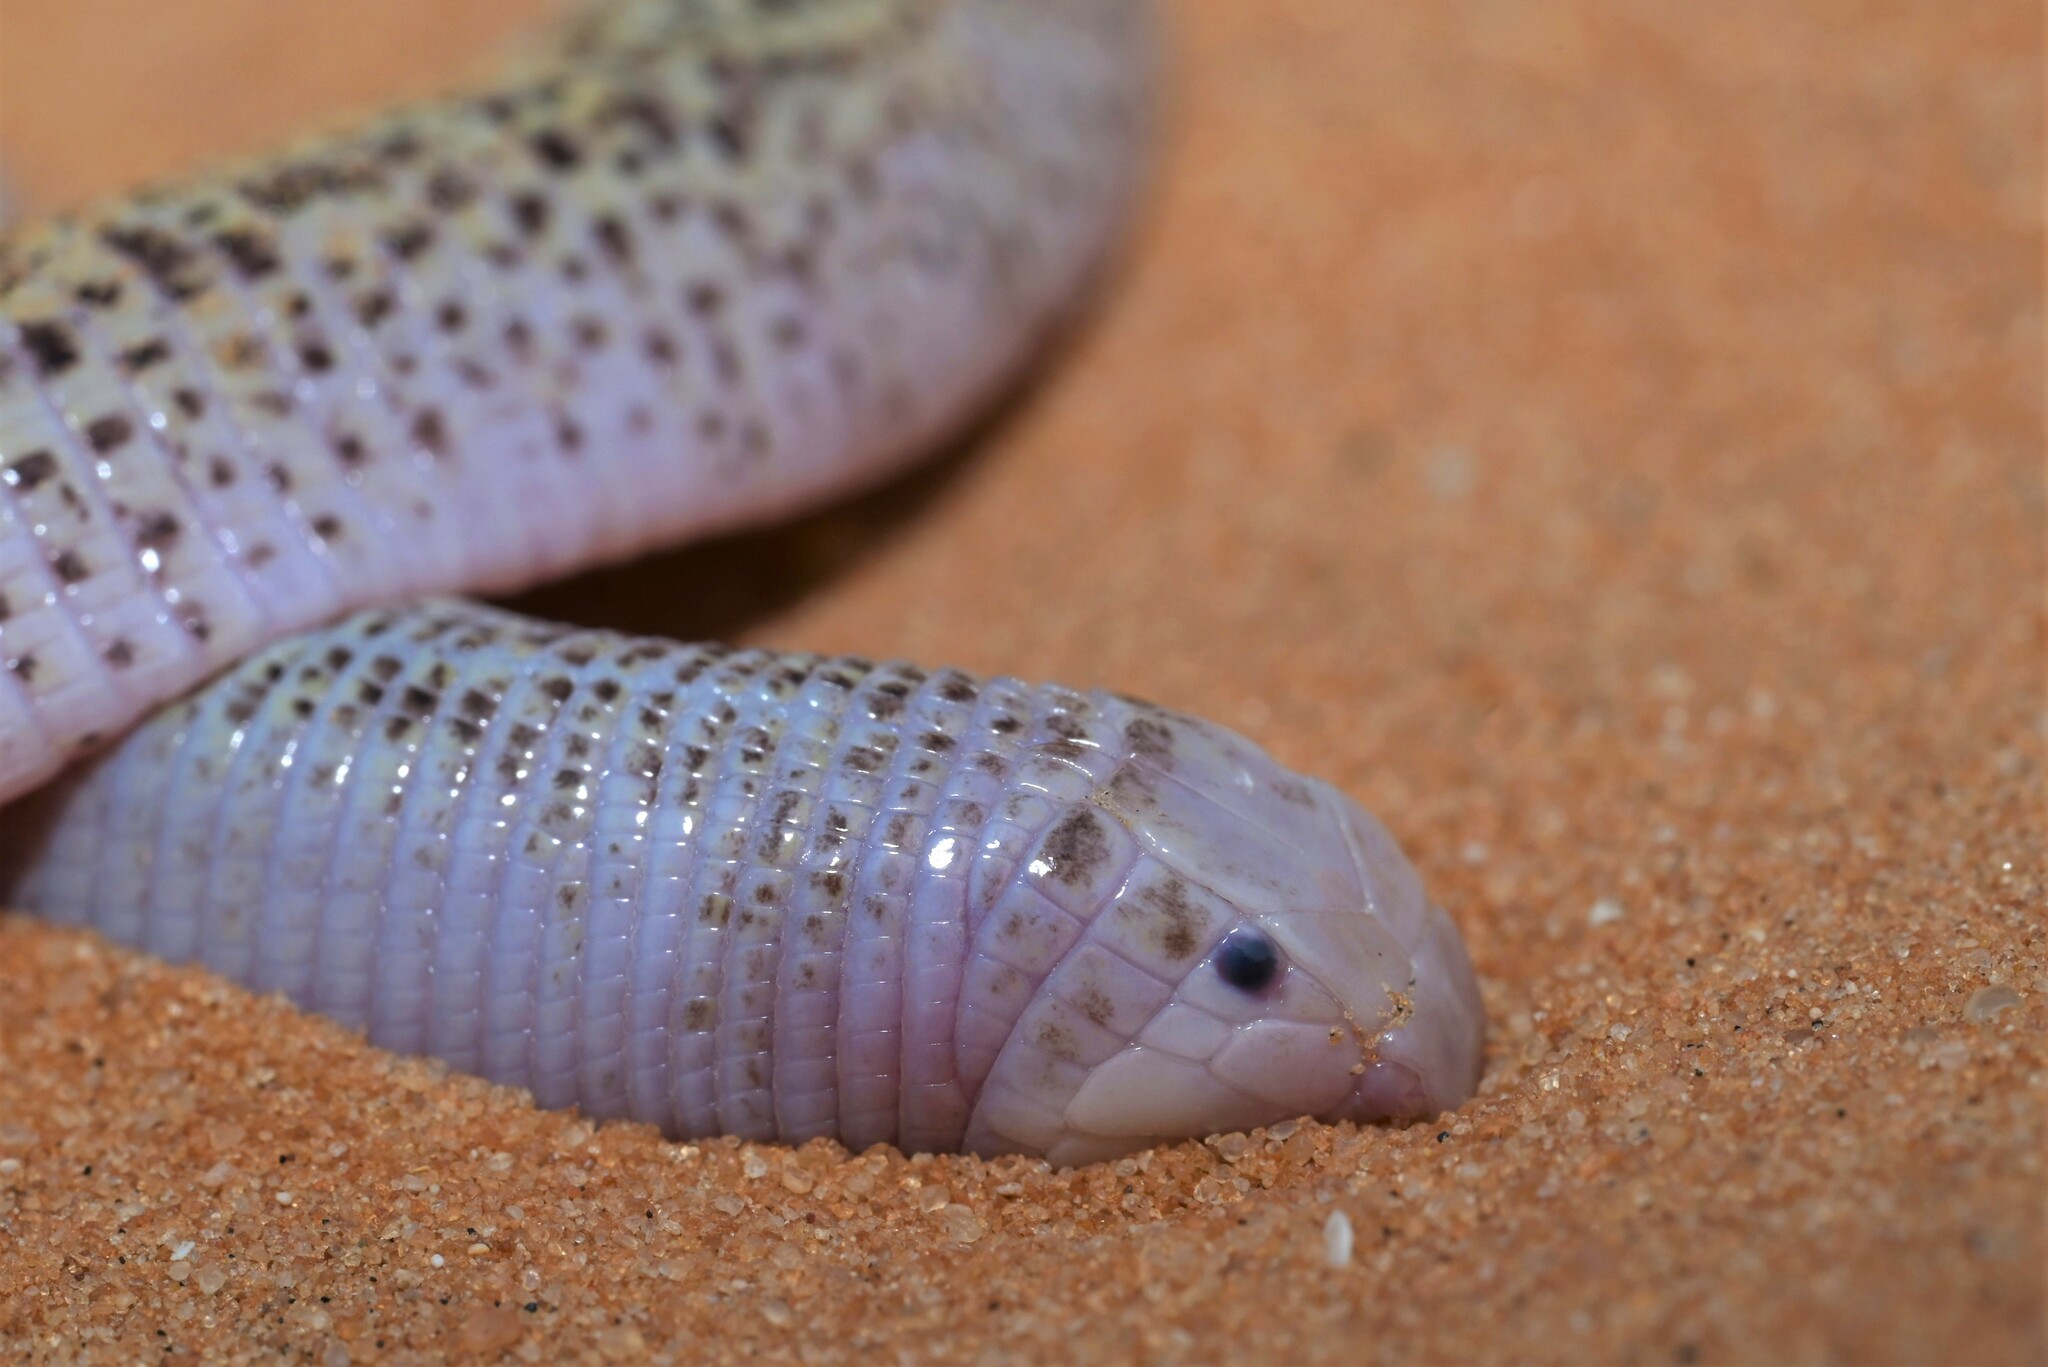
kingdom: Animalia
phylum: Chordata
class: Squamata
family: Trogonophidae
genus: Diplometopon
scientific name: Diplometopon zarudnyi
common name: Zarudnyi's worm lizard
